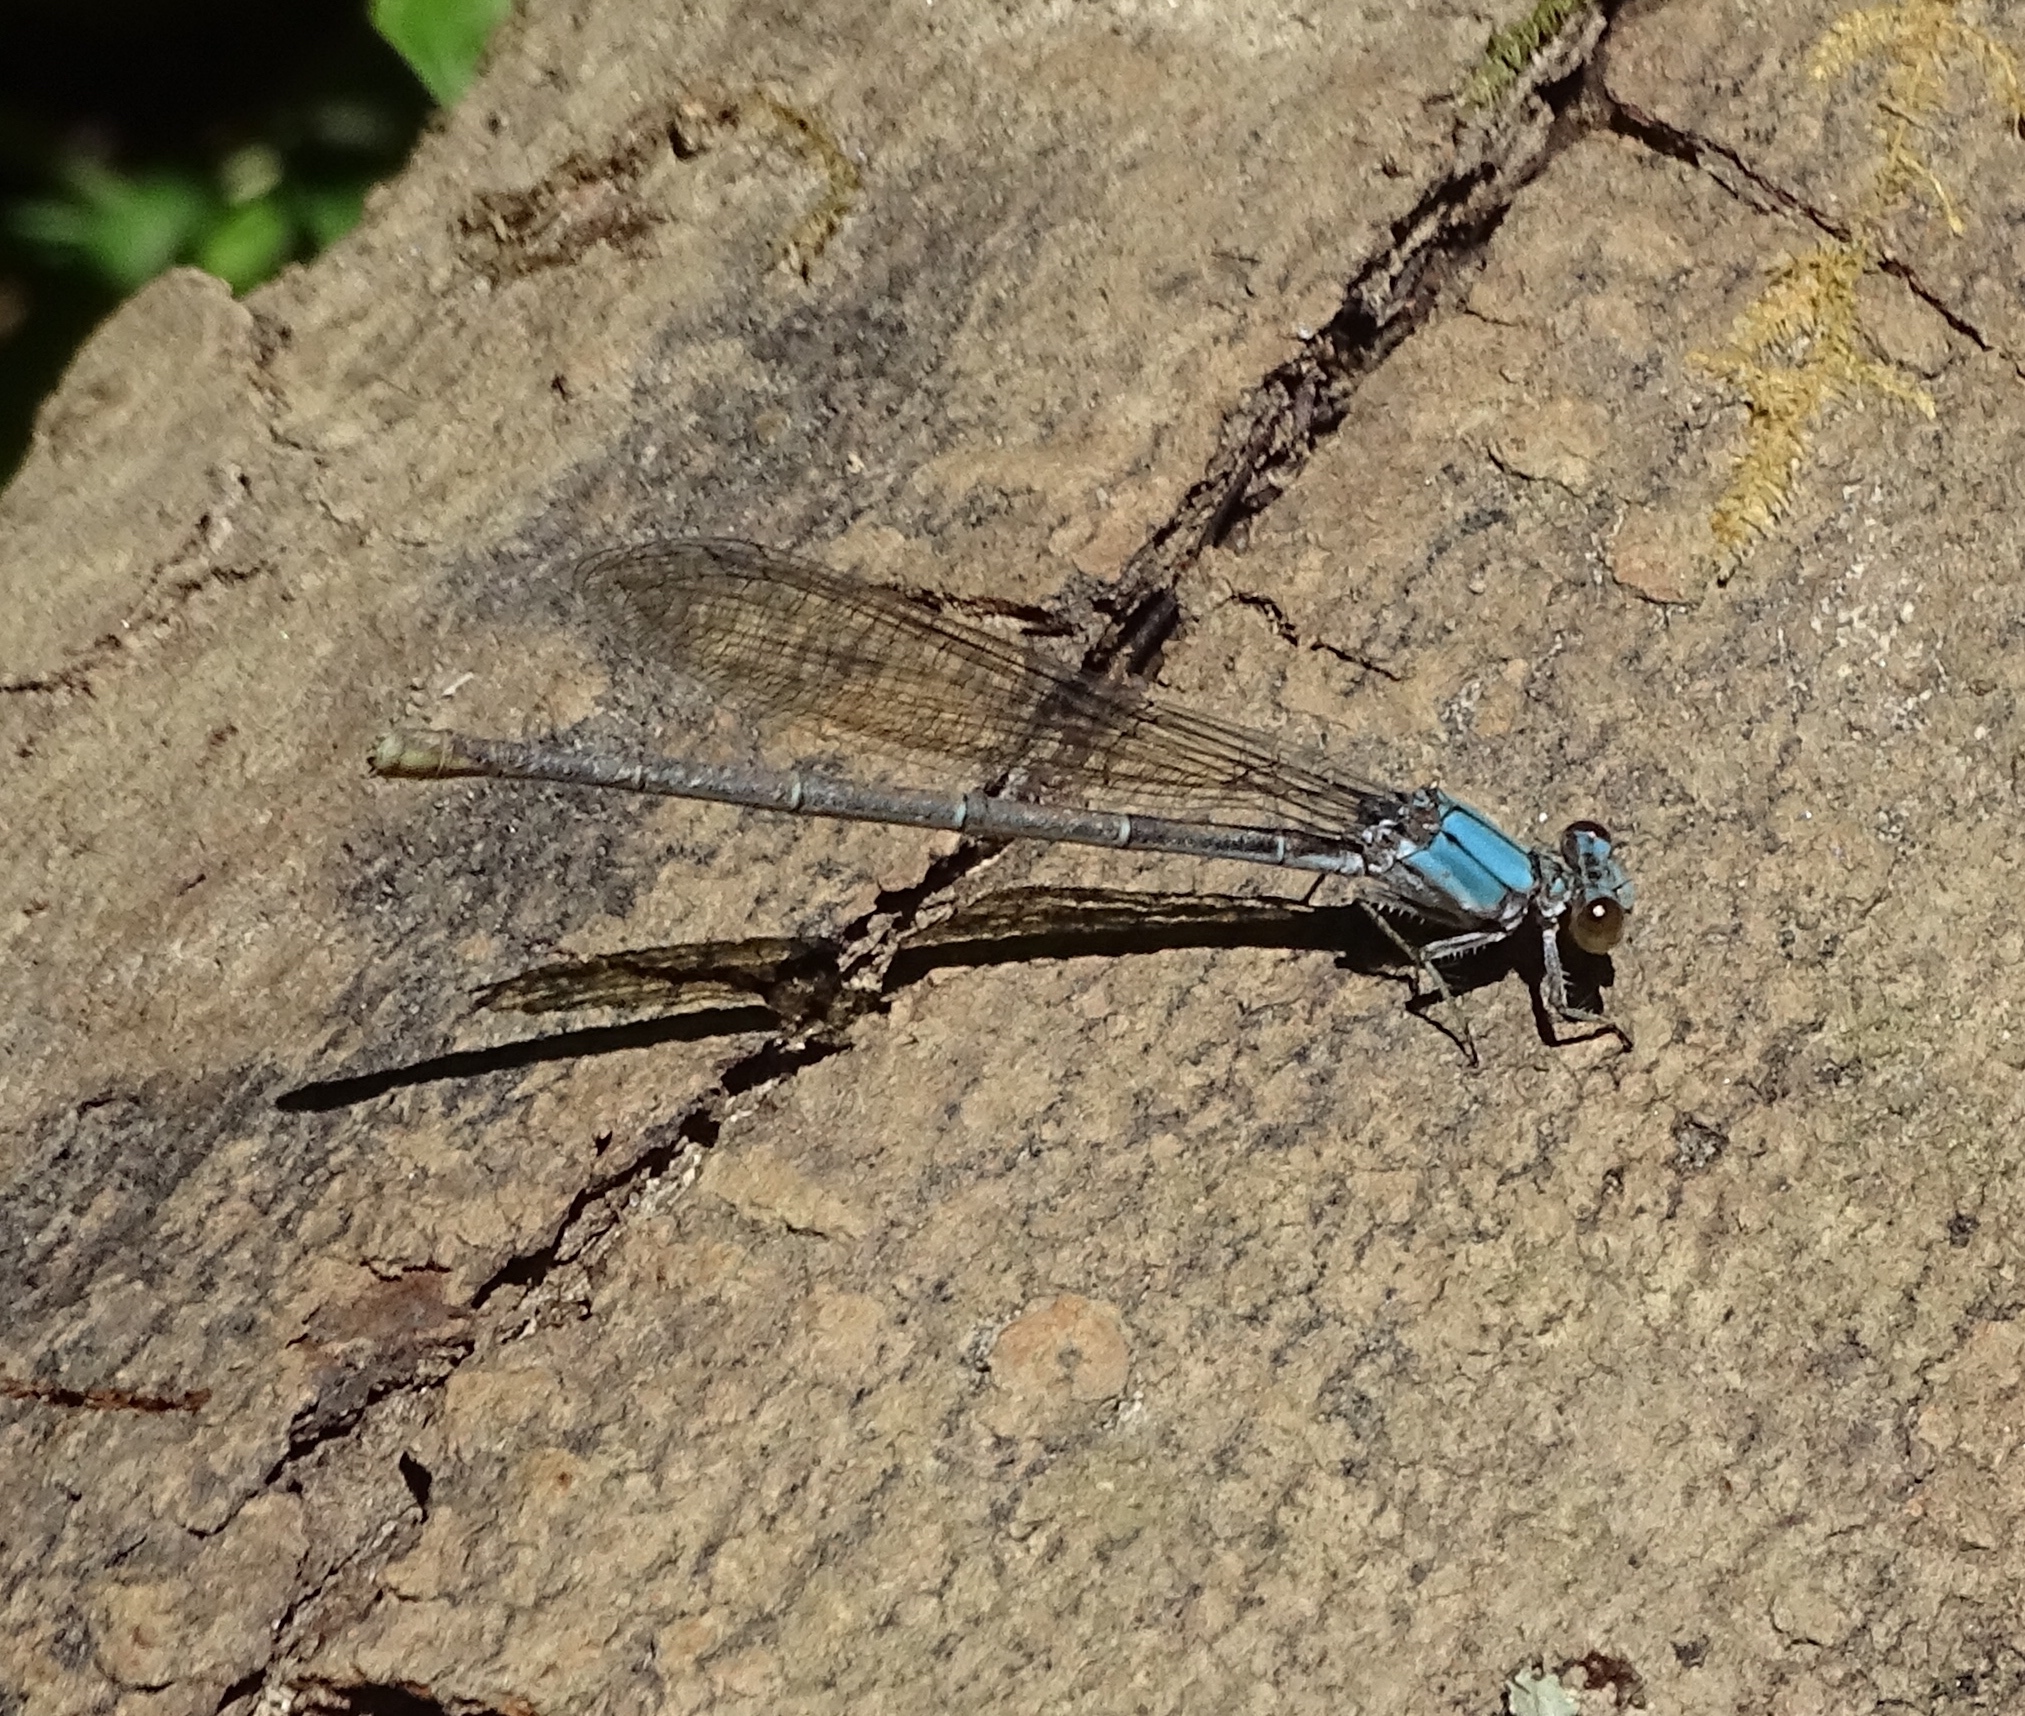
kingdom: Animalia
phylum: Arthropoda
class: Insecta
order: Odonata
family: Coenagrionidae
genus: Argia
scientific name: Argia moesta
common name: Powdered dancer
